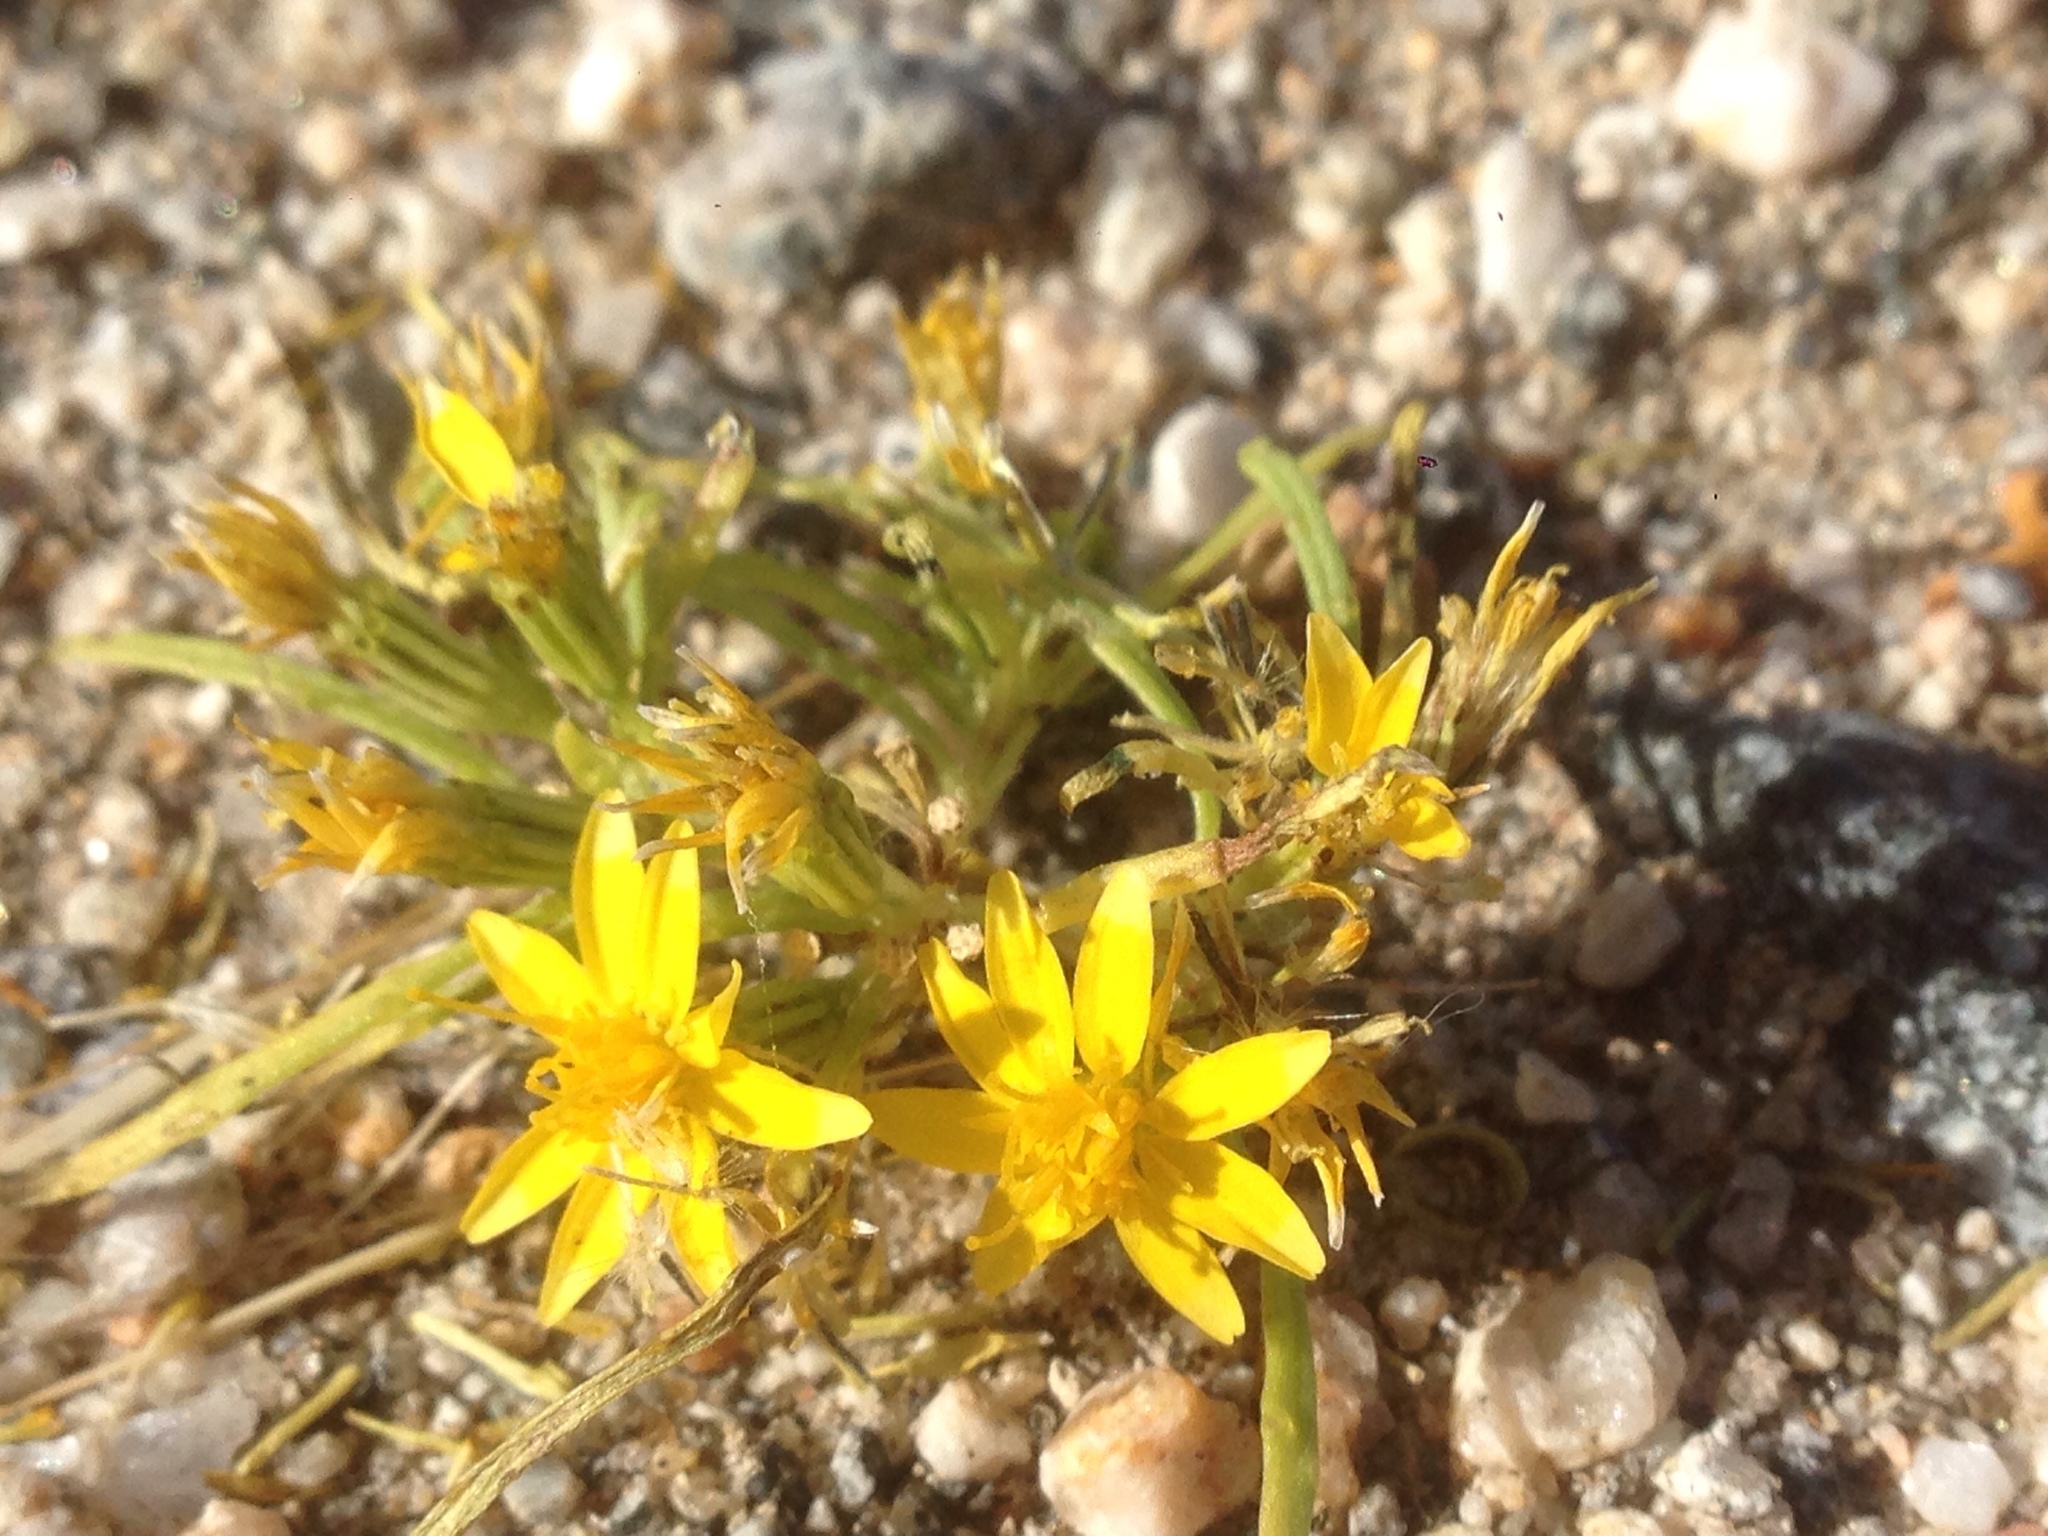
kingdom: Plantae
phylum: Tracheophyta
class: Magnoliopsida
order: Asterales
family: Asteraceae
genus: Pectis
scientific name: Pectis papposa
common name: Many-bristle chinchweed
